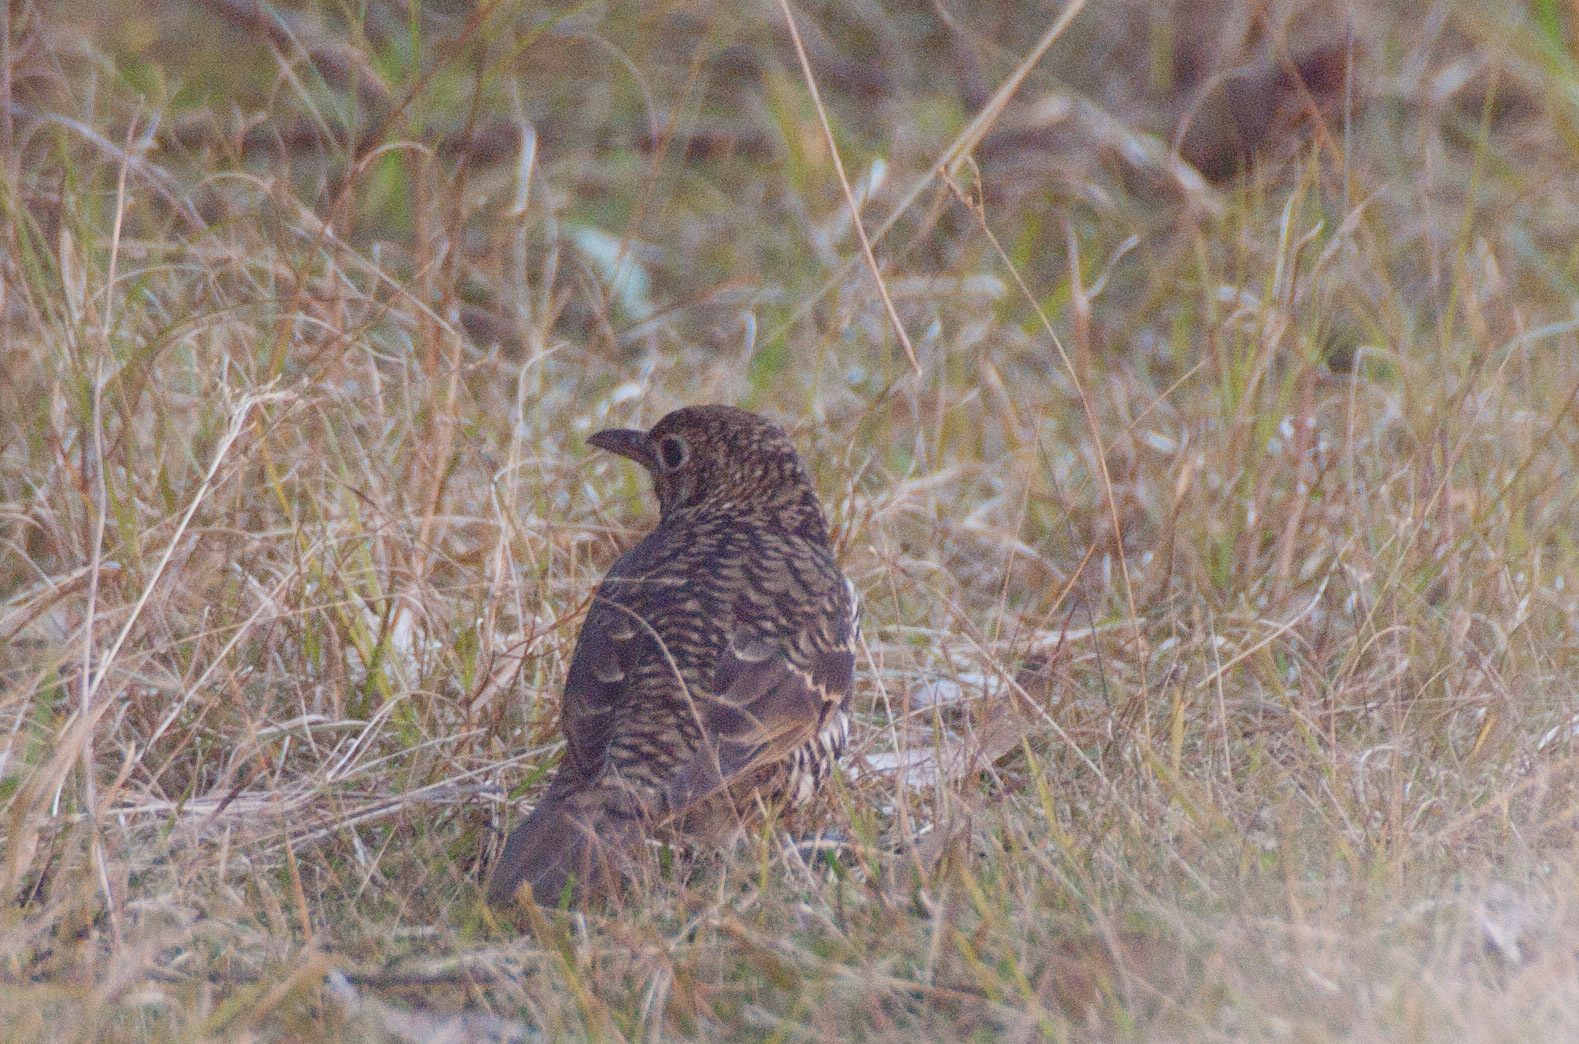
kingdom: Animalia
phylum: Chordata
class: Aves
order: Passeriformes
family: Turdidae
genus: Zoothera
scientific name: Zoothera lunulata
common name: Bassian thrush
